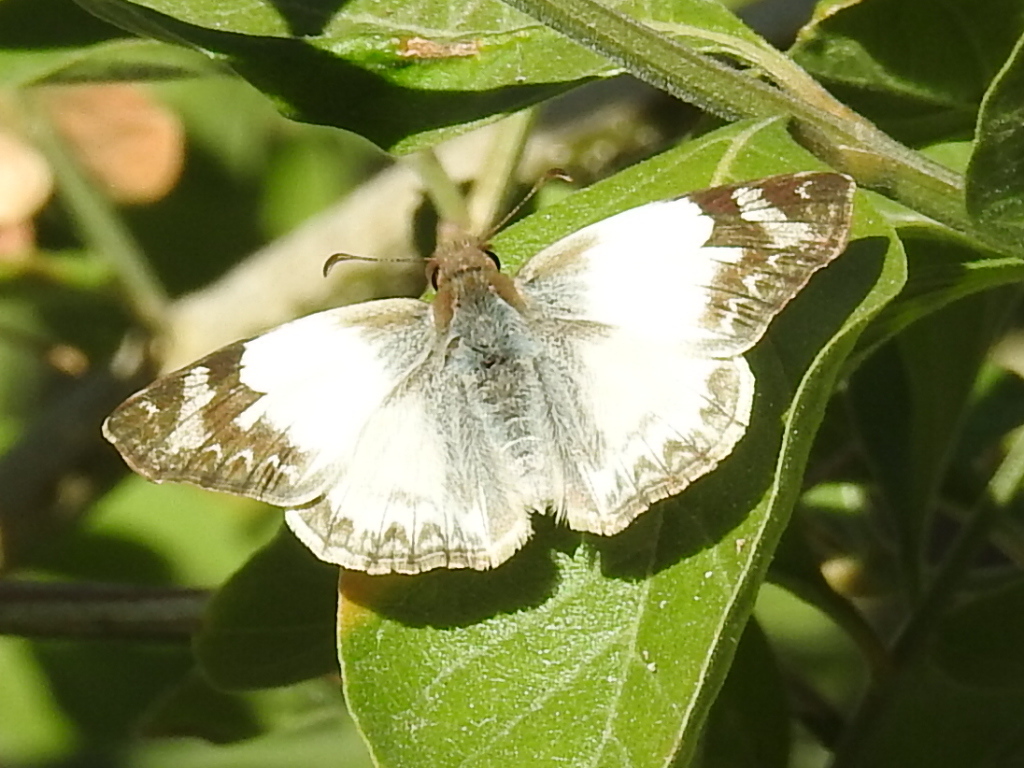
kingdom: Animalia
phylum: Arthropoda
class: Insecta
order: Lepidoptera
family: Hesperiidae
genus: Heliopetes
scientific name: Heliopetes laviana
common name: Laviana white-skipper
